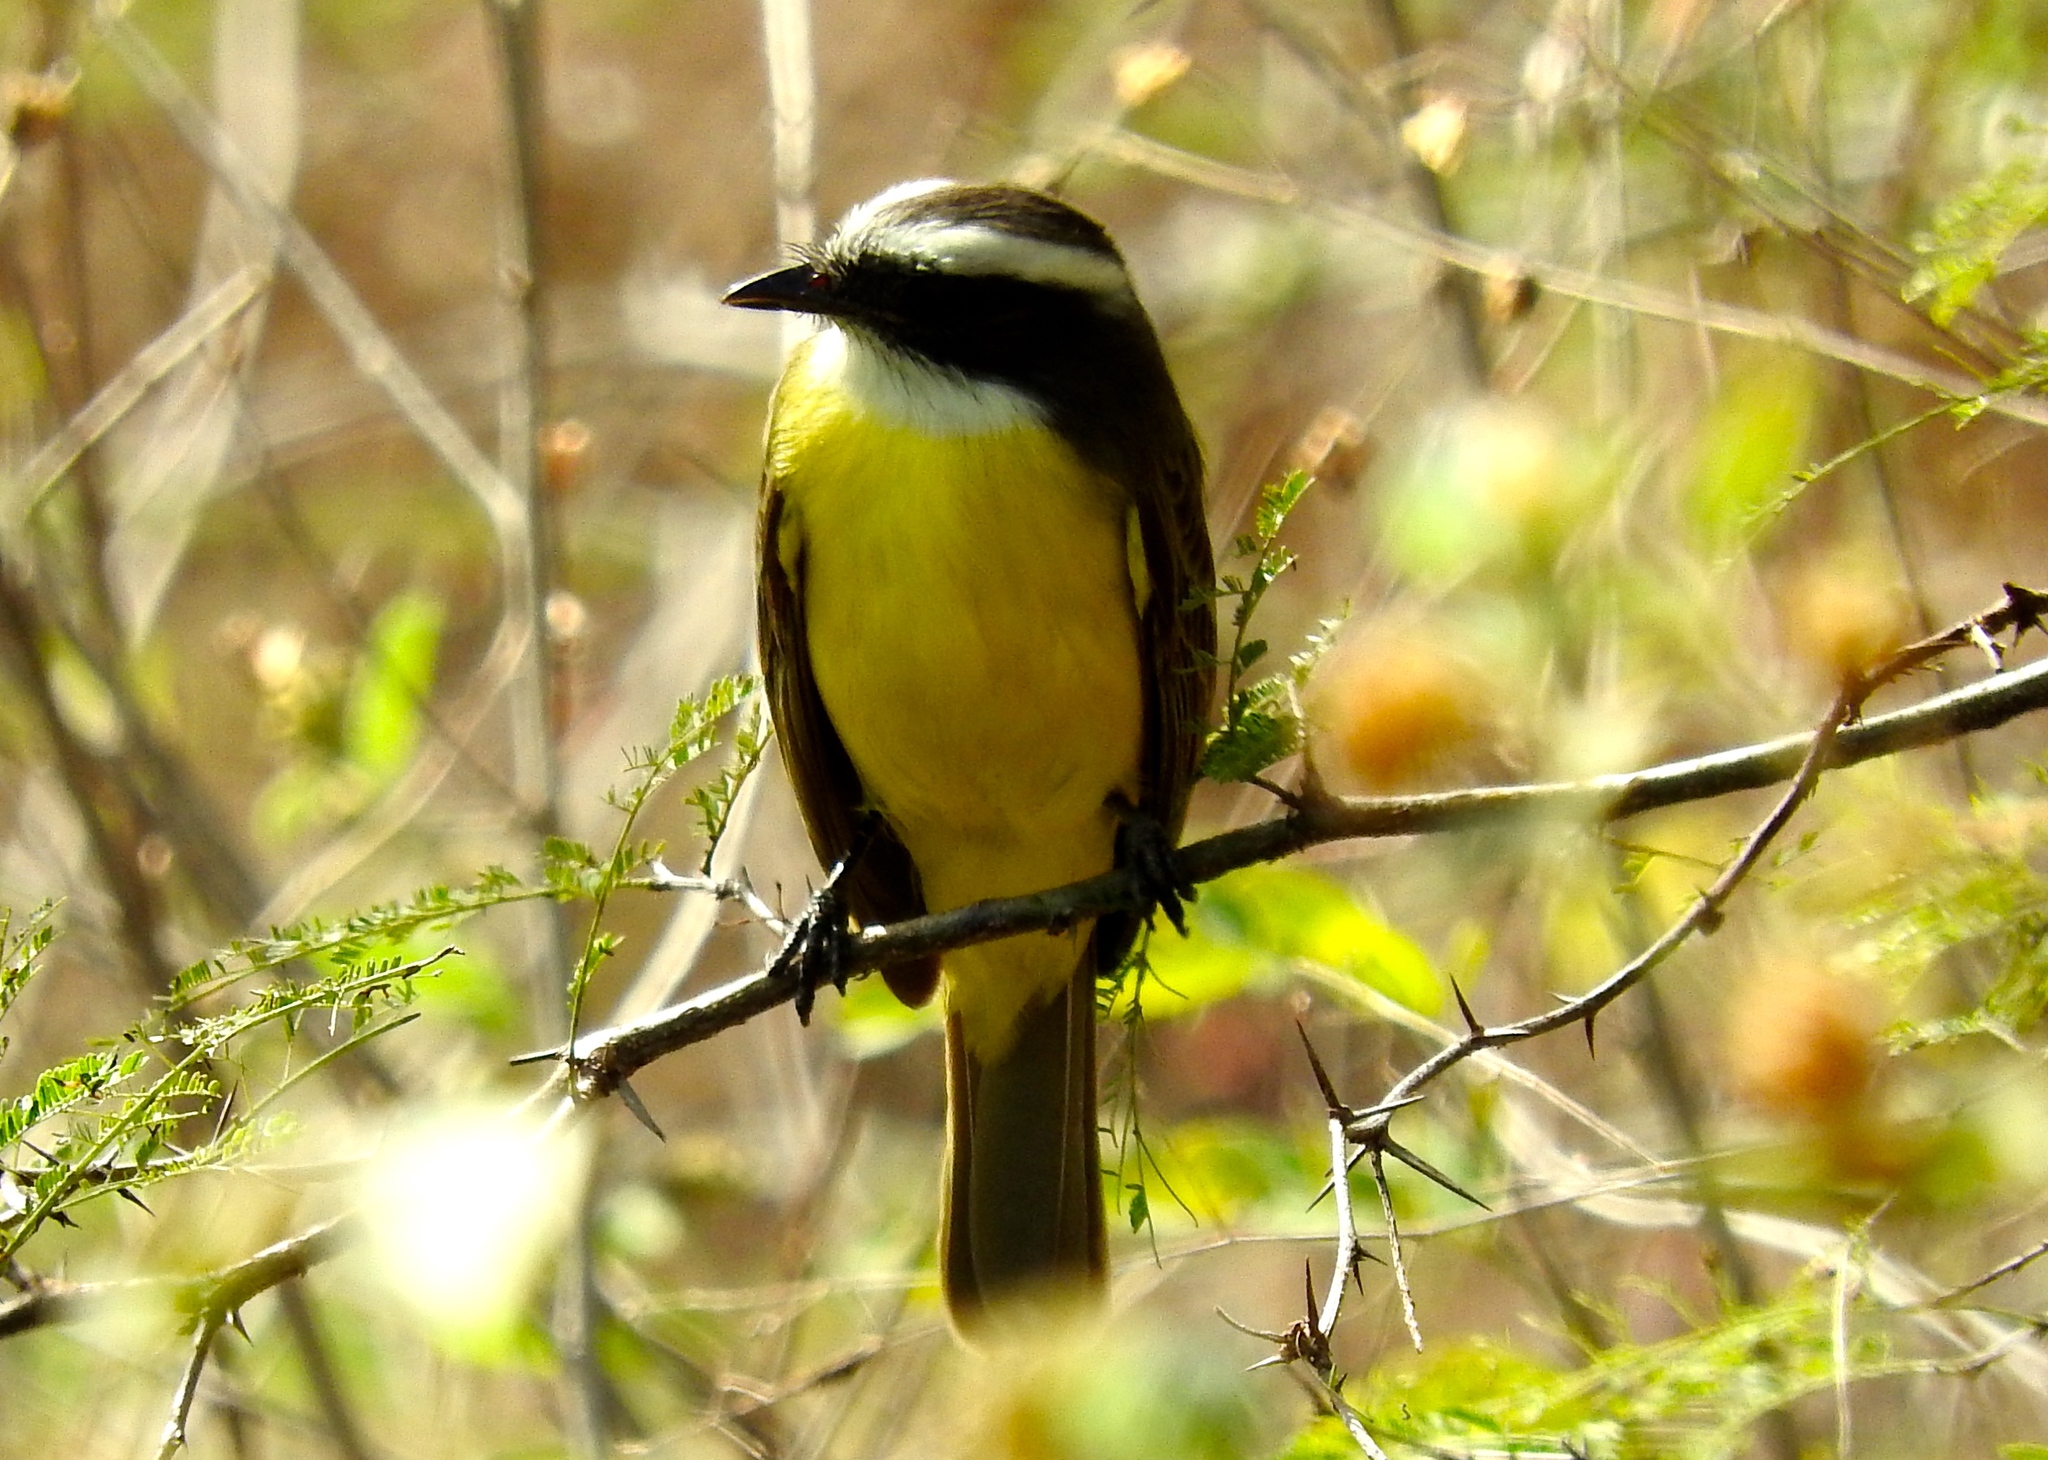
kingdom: Animalia
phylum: Chordata
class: Aves
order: Passeriformes
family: Tyrannidae
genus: Myiozetetes
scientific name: Myiozetetes similis
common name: Social flycatcher
